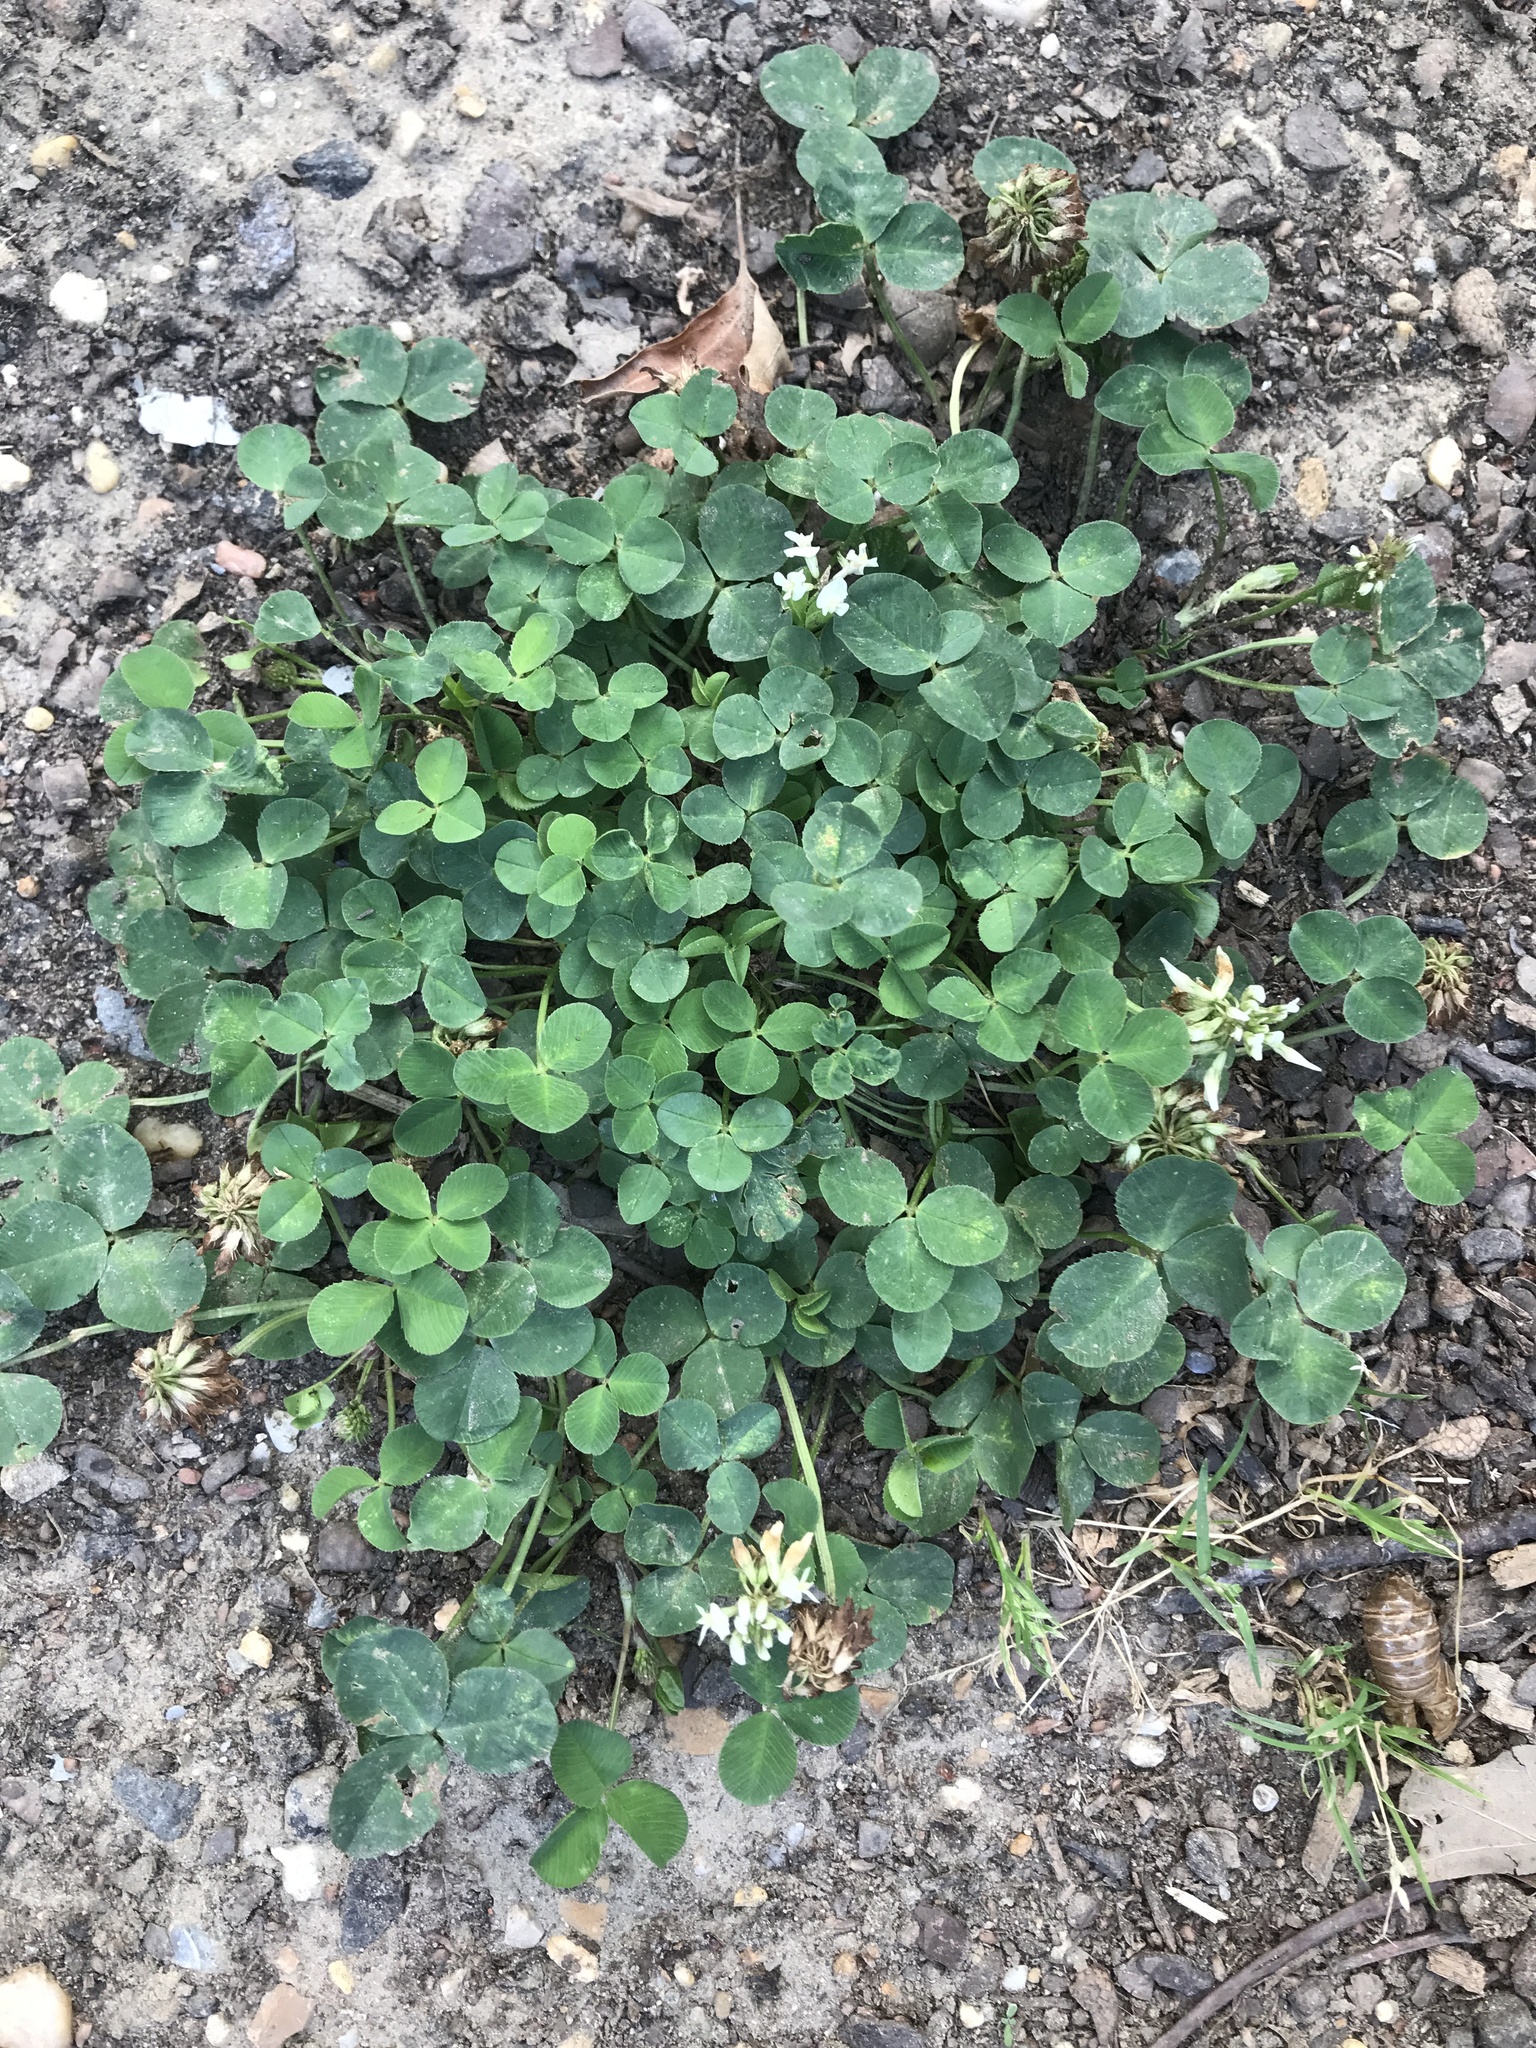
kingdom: Plantae
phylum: Tracheophyta
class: Magnoliopsida
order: Fabales
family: Fabaceae
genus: Trifolium
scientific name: Trifolium repens
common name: White clover
